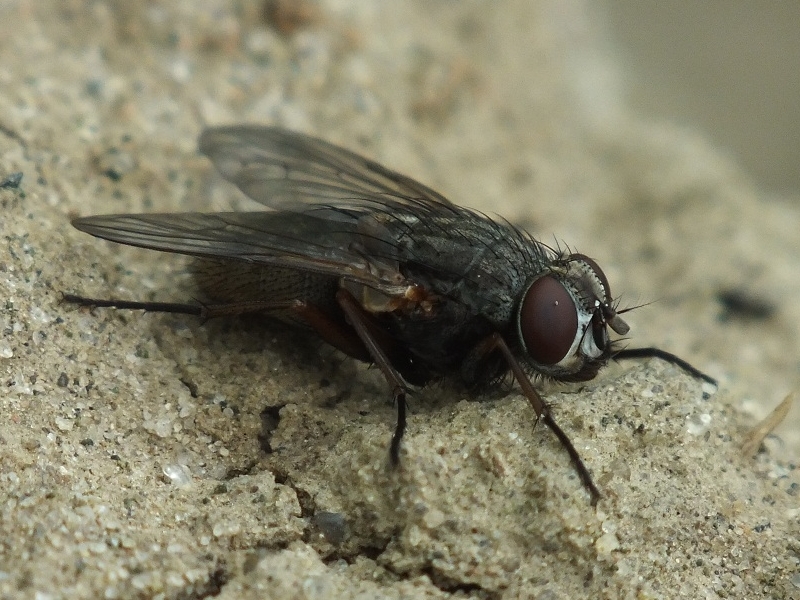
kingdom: Animalia
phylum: Arthropoda
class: Insecta
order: Diptera
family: Muscidae
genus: Muscina
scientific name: Muscina stabulans
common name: False stable fly
